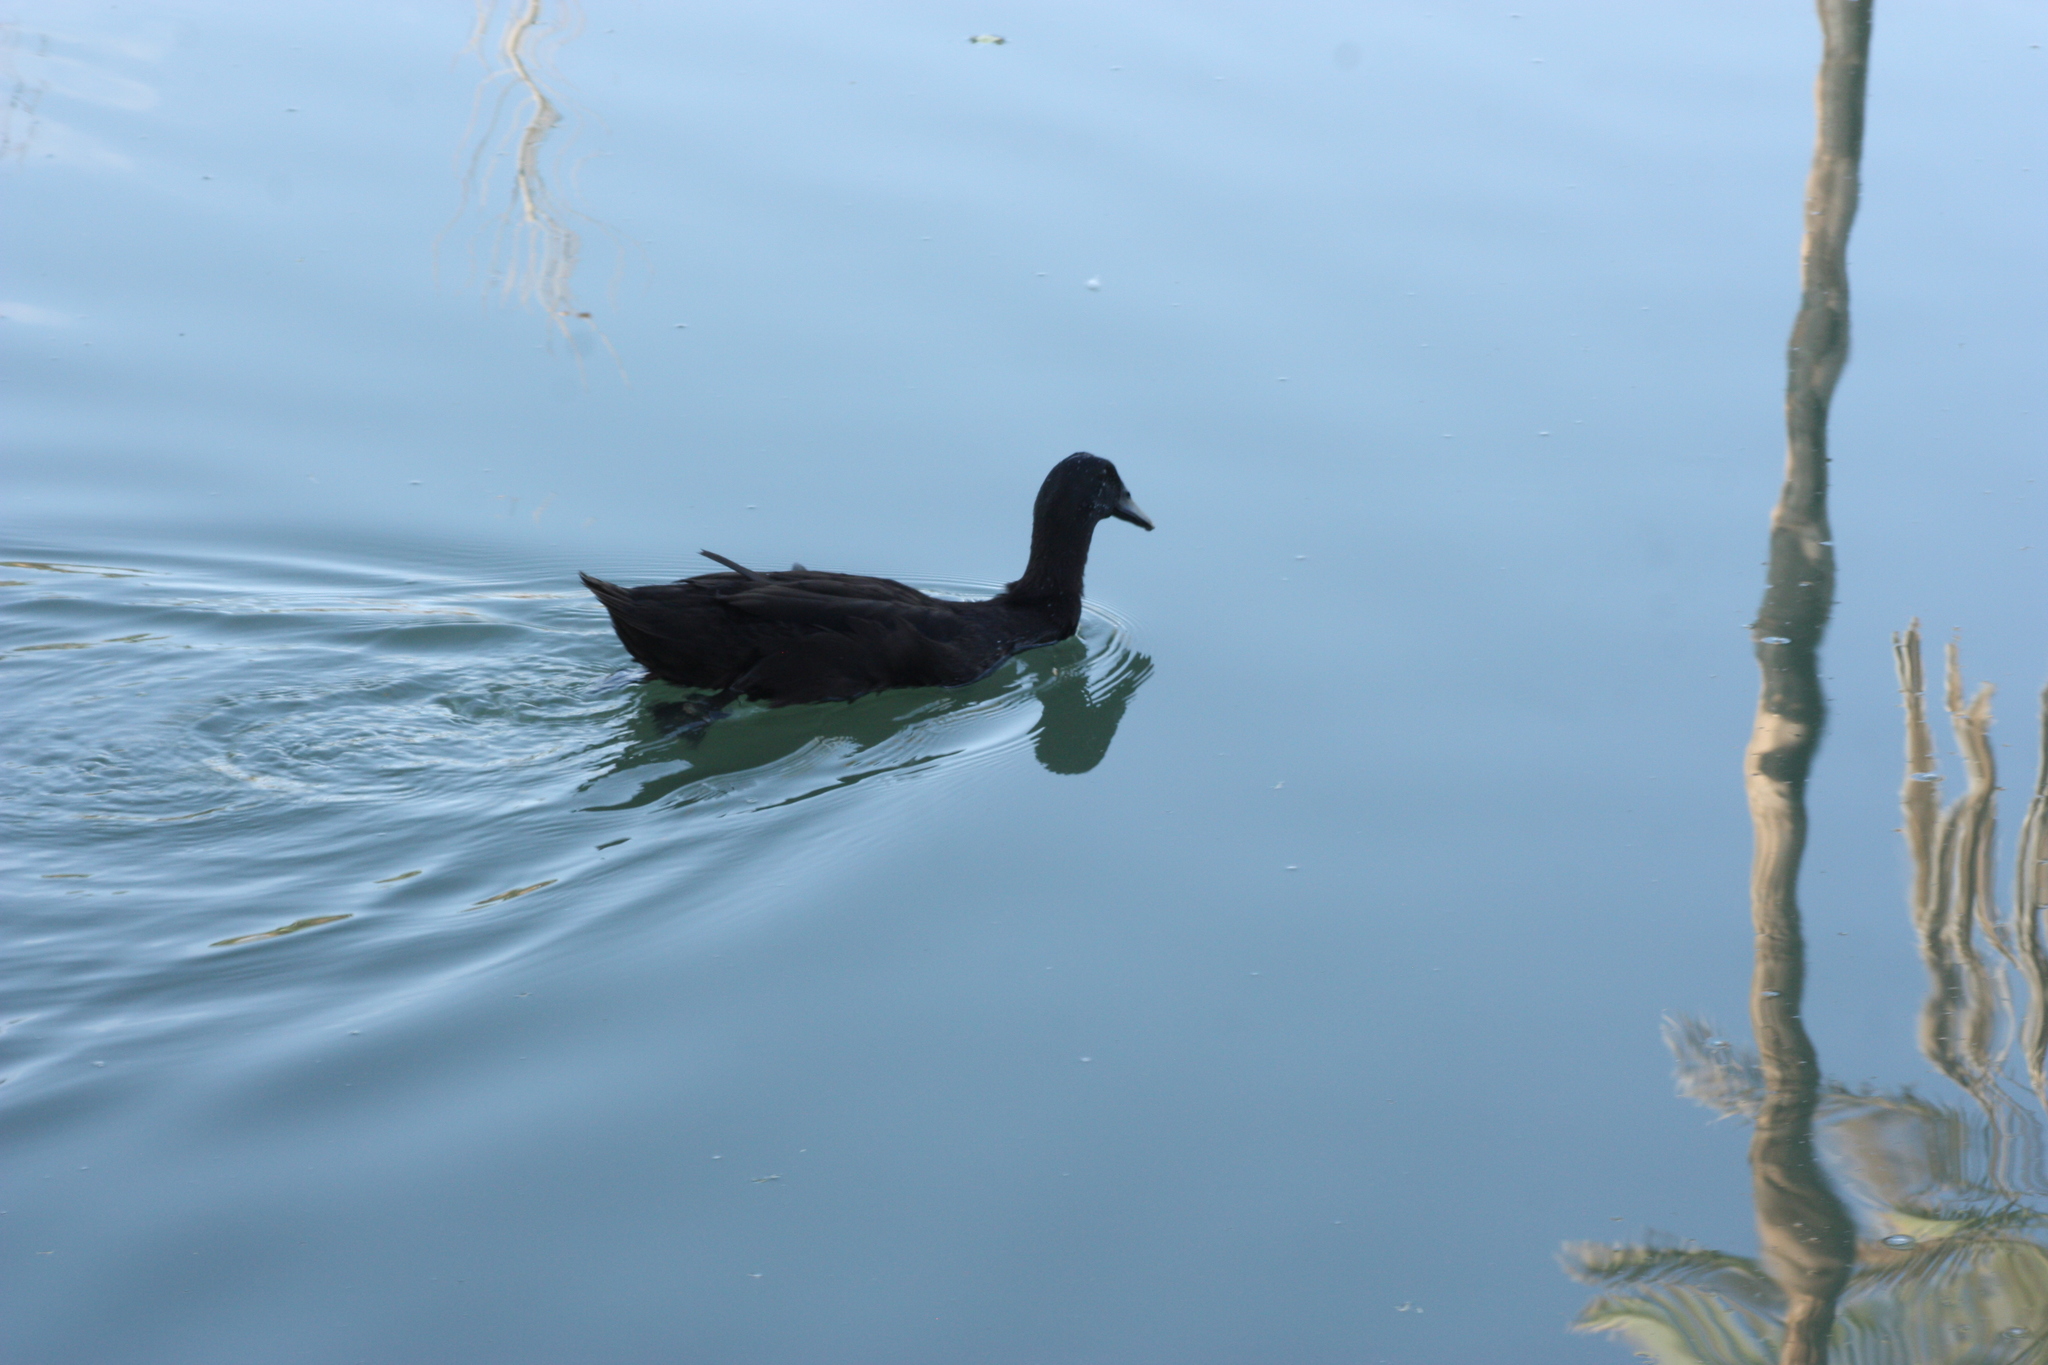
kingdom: Animalia
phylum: Chordata
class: Aves
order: Anseriformes
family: Anatidae
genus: Anas
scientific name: Anas platyrhynchos
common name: Mallard
